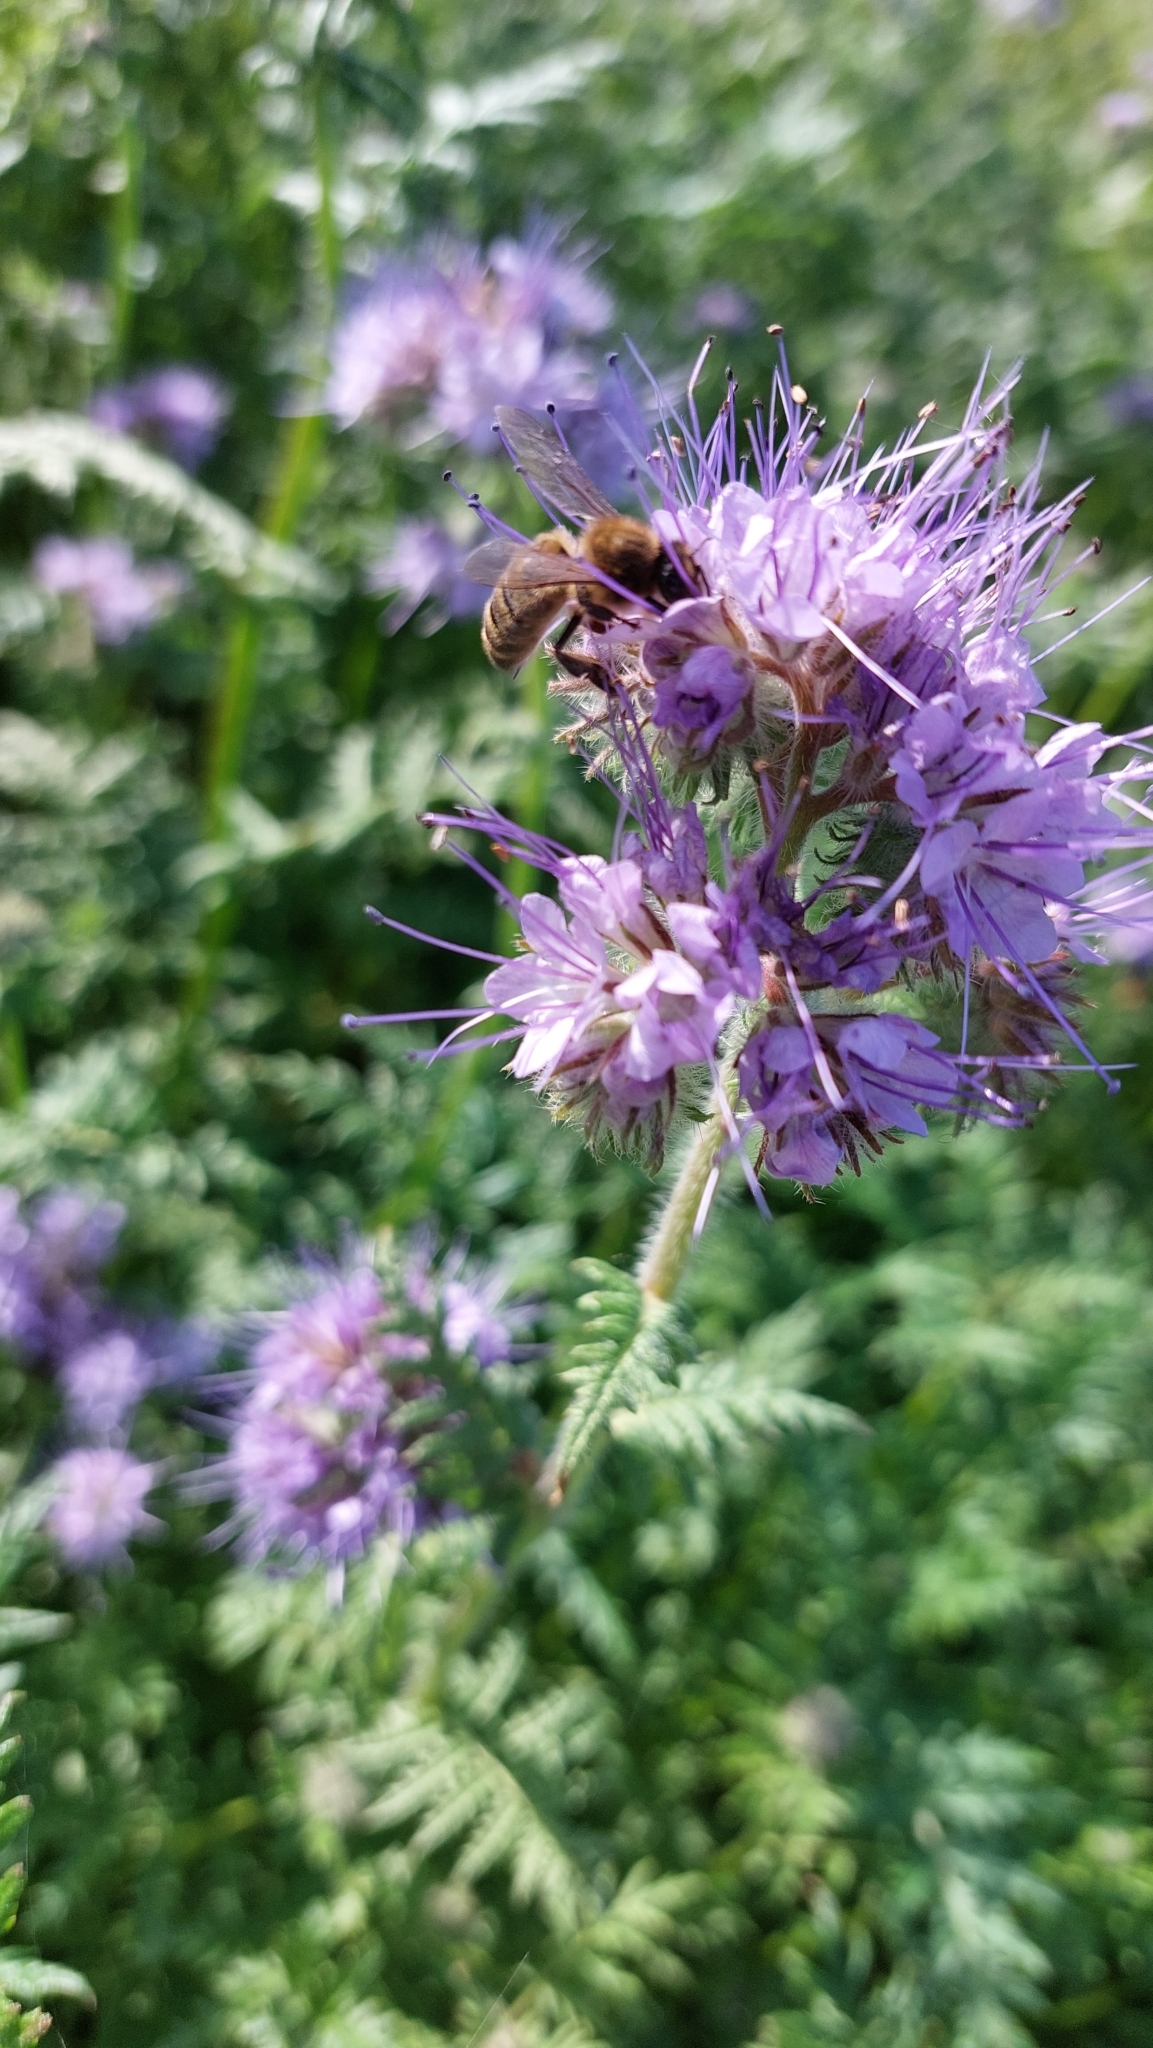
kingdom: Animalia
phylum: Arthropoda
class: Insecta
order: Hymenoptera
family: Apidae
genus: Apis
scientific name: Apis mellifera
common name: Honey bee
